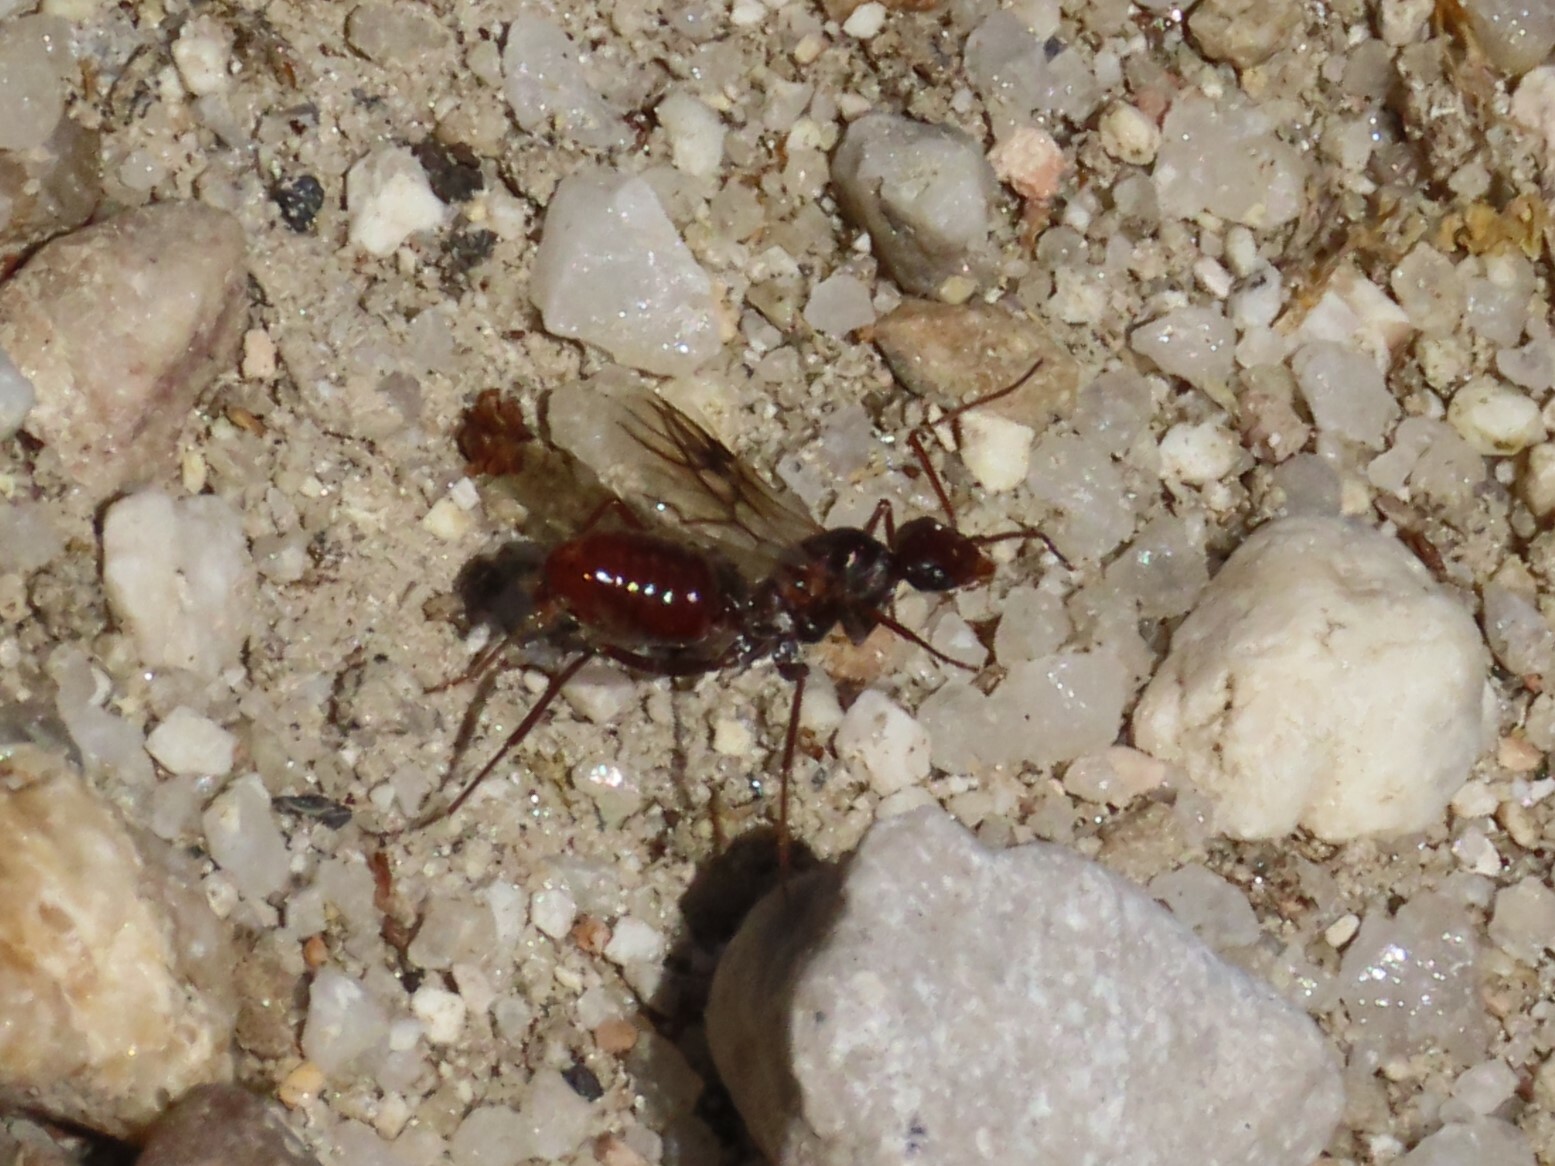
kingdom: Animalia
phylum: Arthropoda
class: Insecta
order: Hymenoptera
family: Formicidae
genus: Cataglyphis
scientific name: Cataglyphis ibericus
